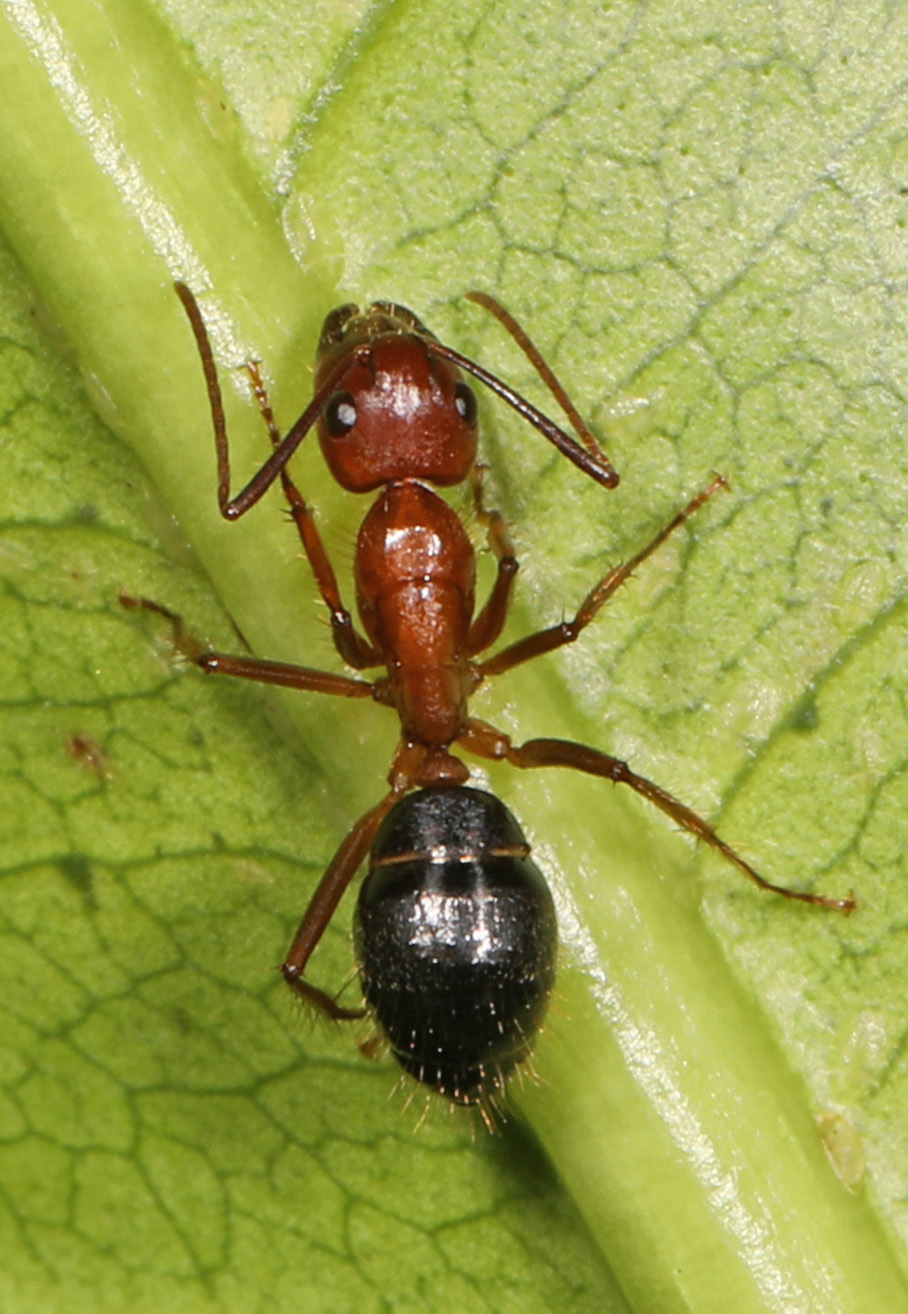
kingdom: Animalia
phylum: Arthropoda
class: Insecta
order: Hymenoptera
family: Formicidae
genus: Camponotus
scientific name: Camponotus floridanus
